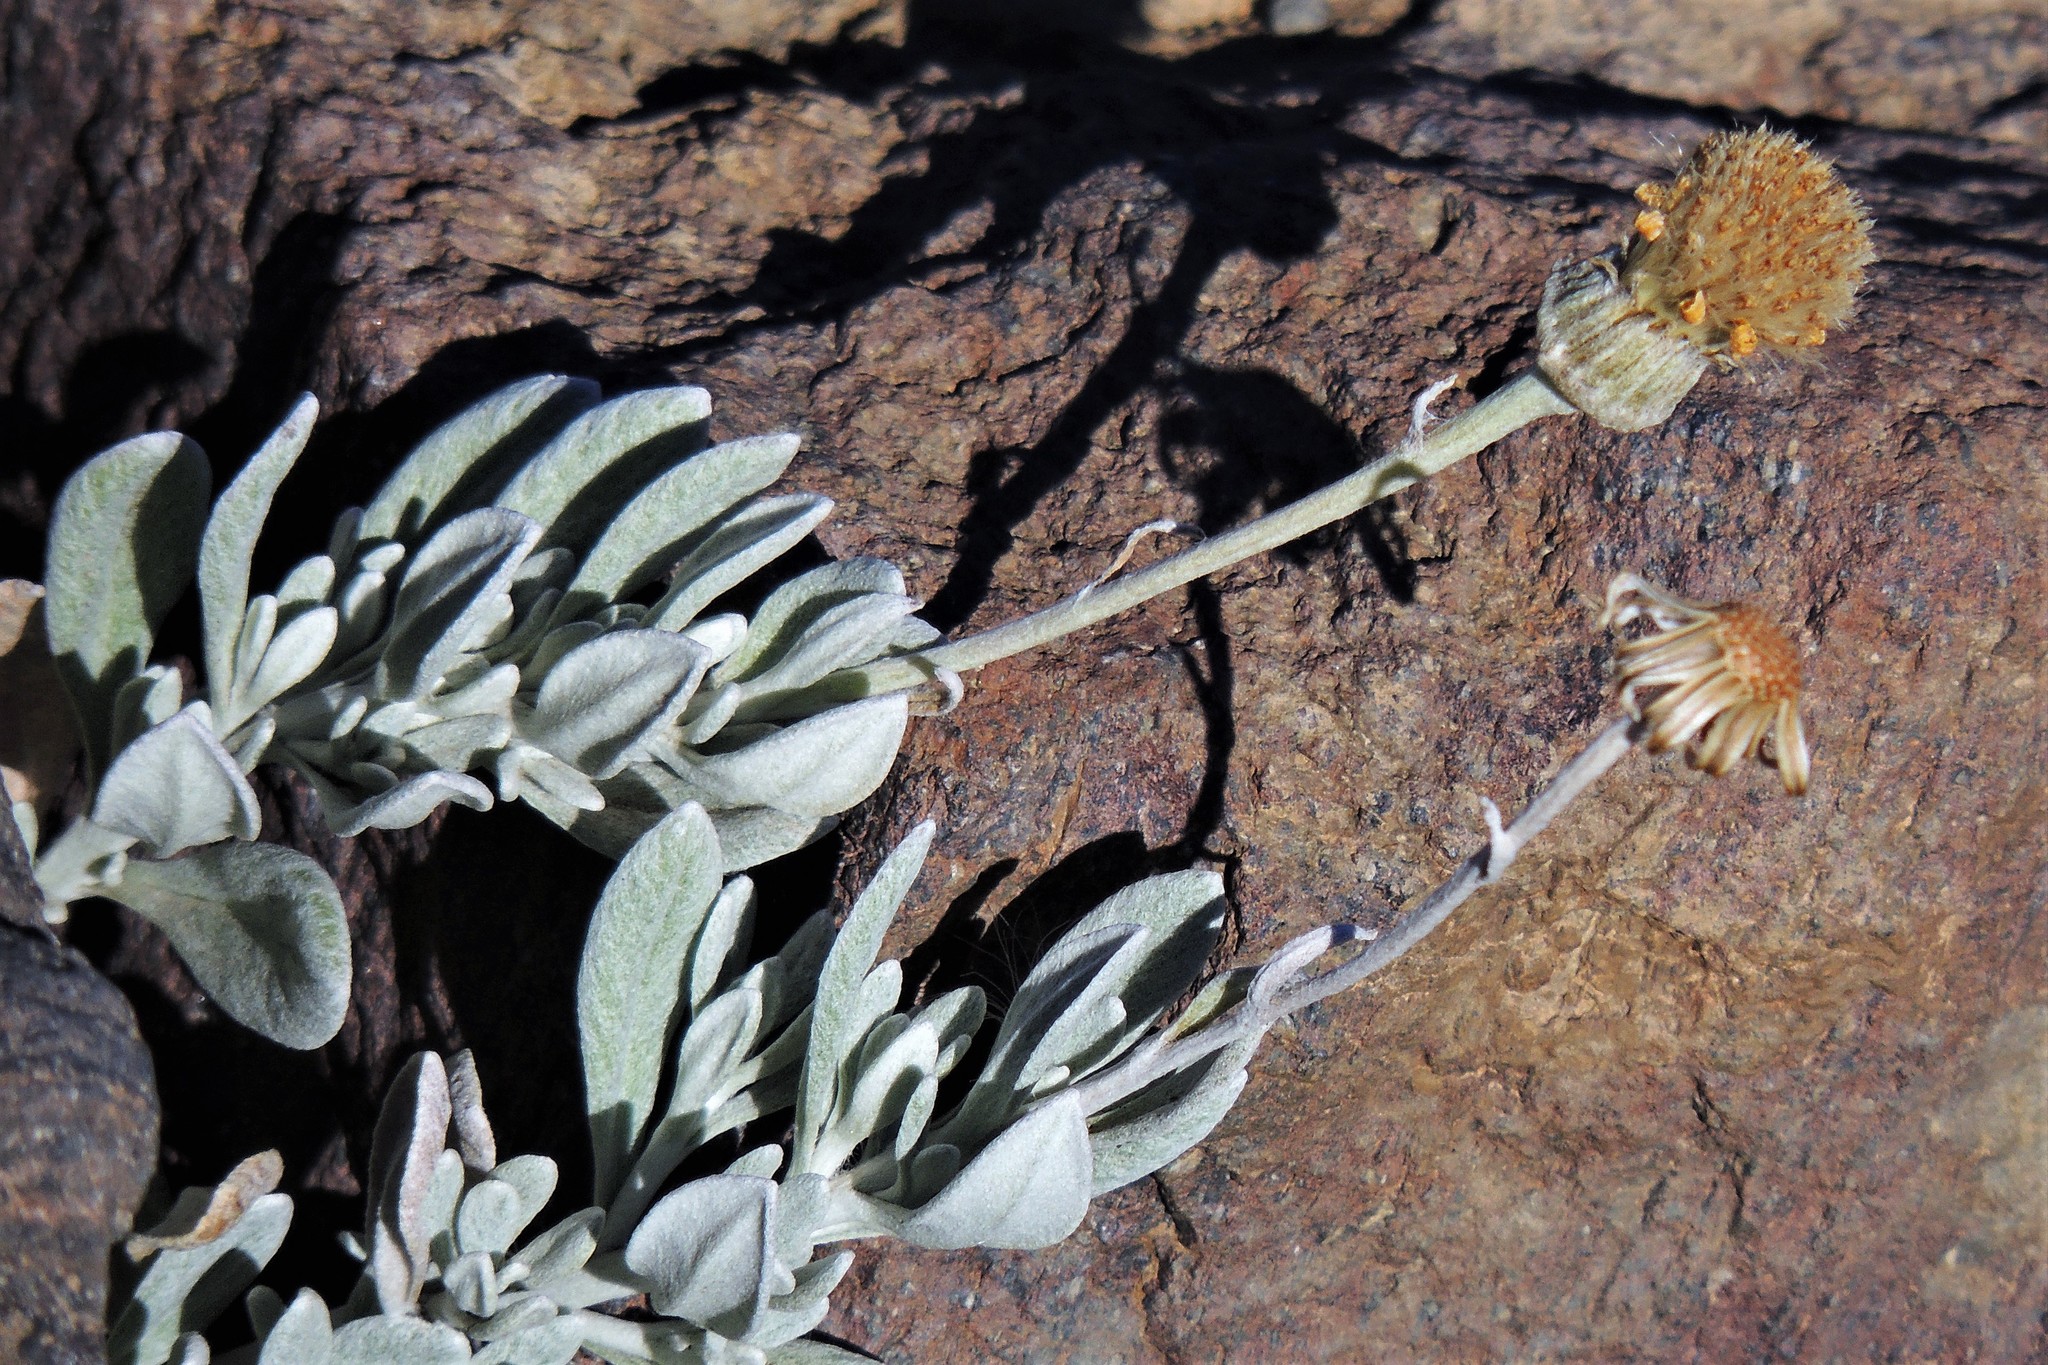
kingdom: Plantae
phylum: Tracheophyta
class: Magnoliopsida
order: Asterales
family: Asteraceae
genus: Senecio
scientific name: Senecio argyreus
